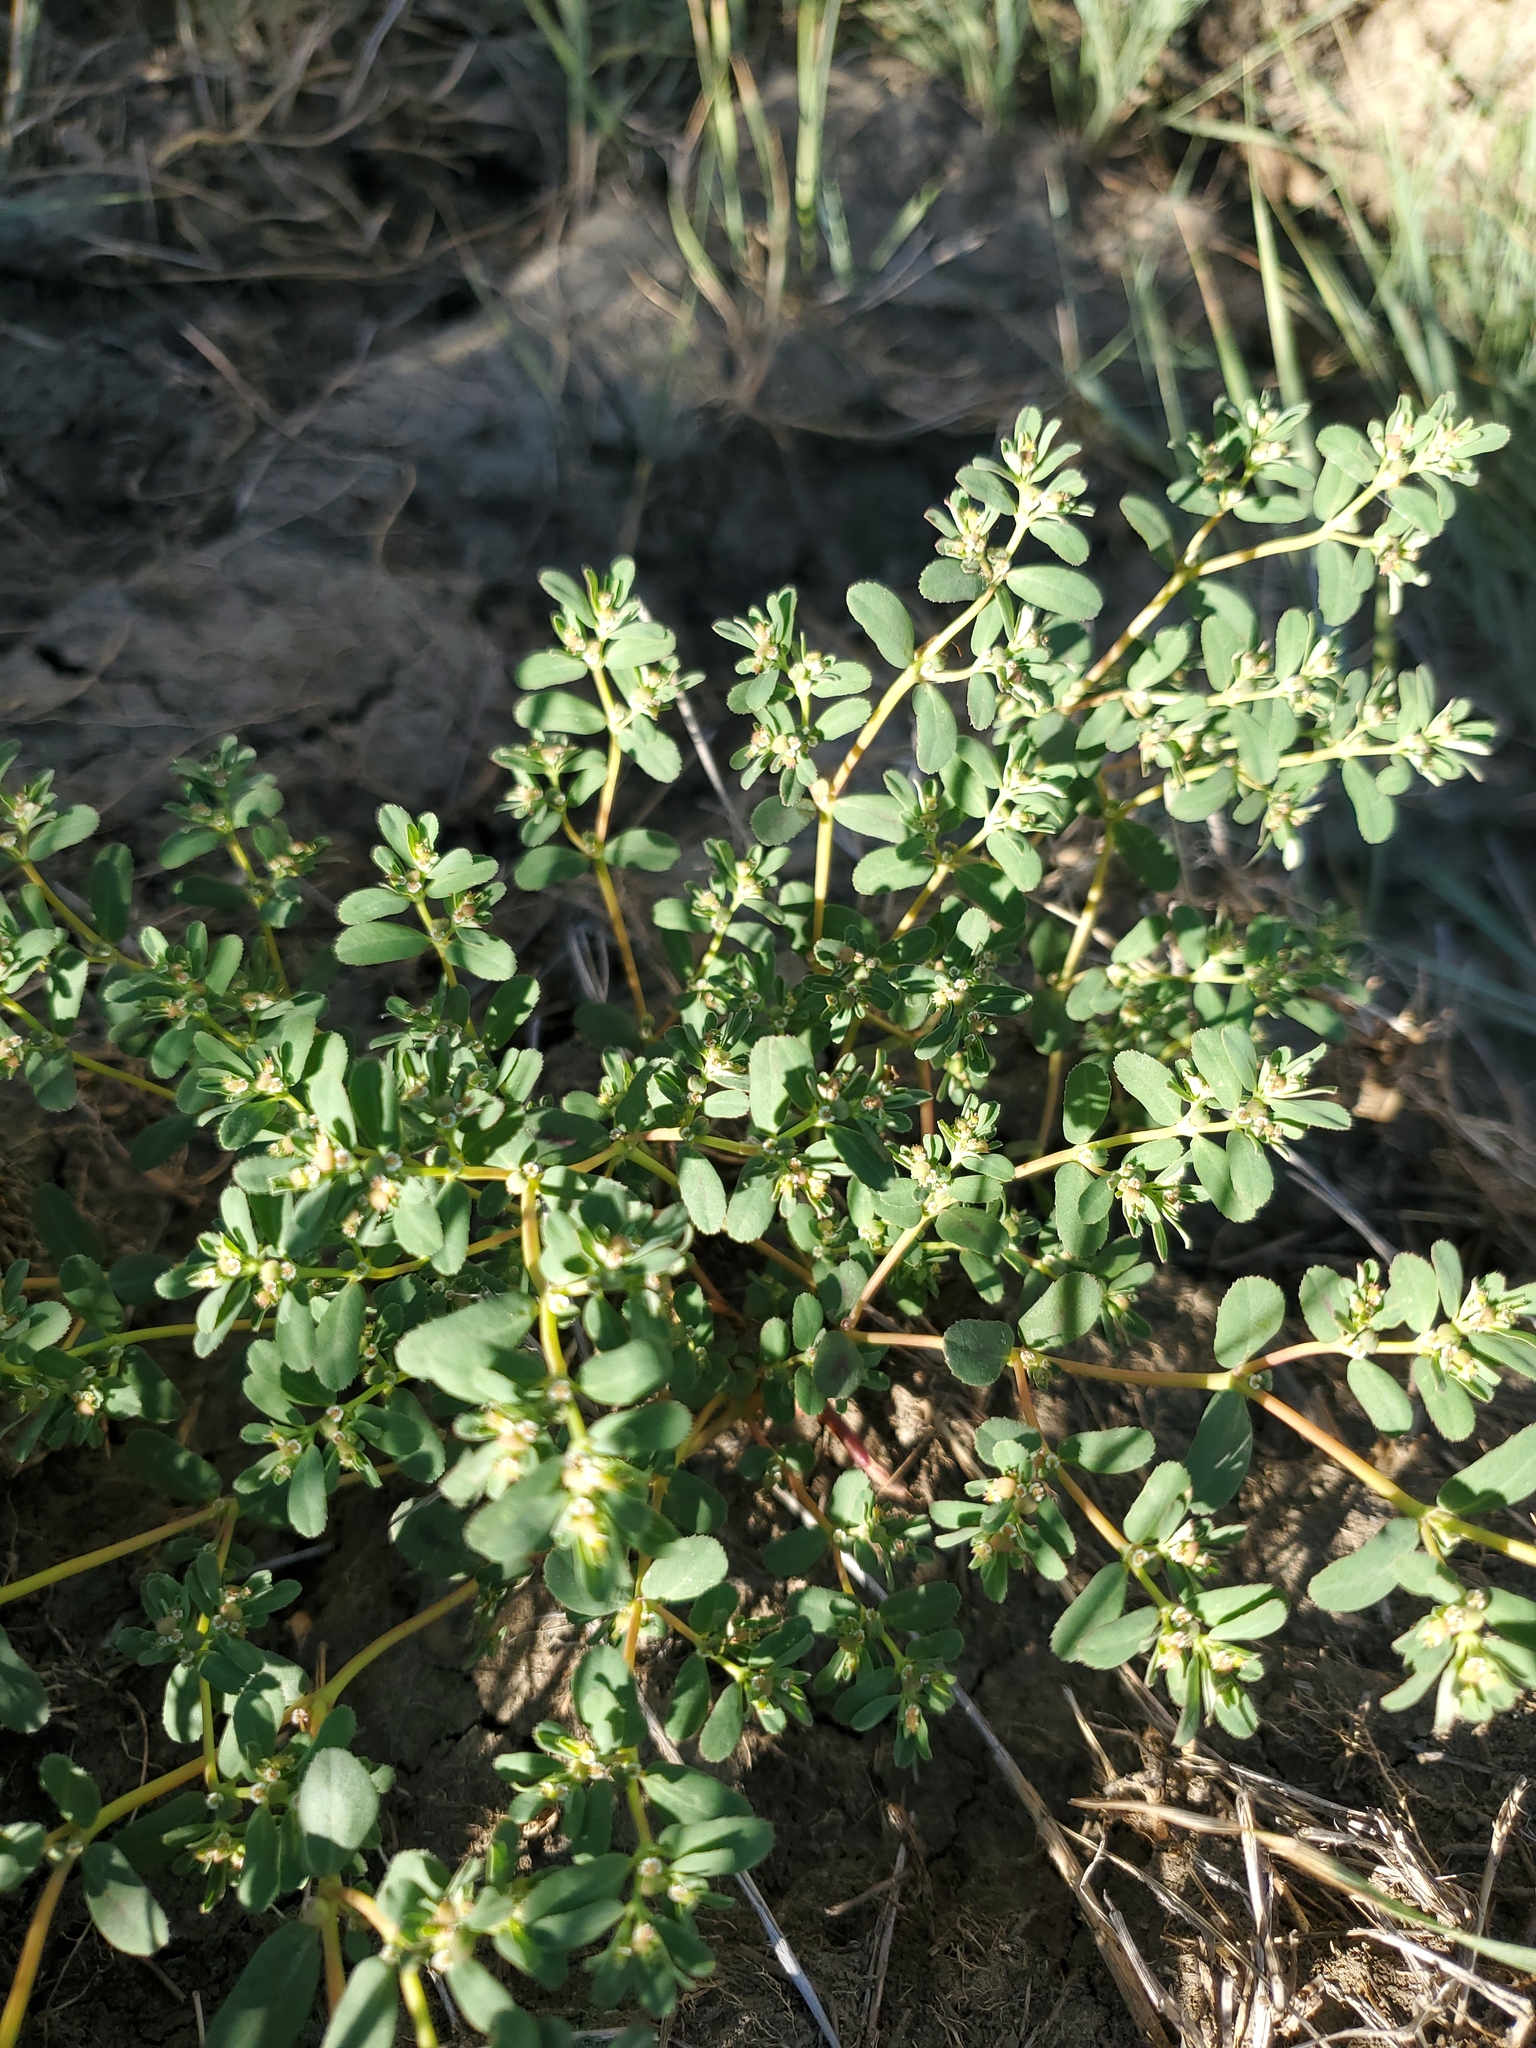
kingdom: Plantae
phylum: Tracheophyta
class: Magnoliopsida
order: Malpighiales
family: Euphorbiaceae
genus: Euphorbia
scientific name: Euphorbia serpillifolia
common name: Thyme-leaf spurge
